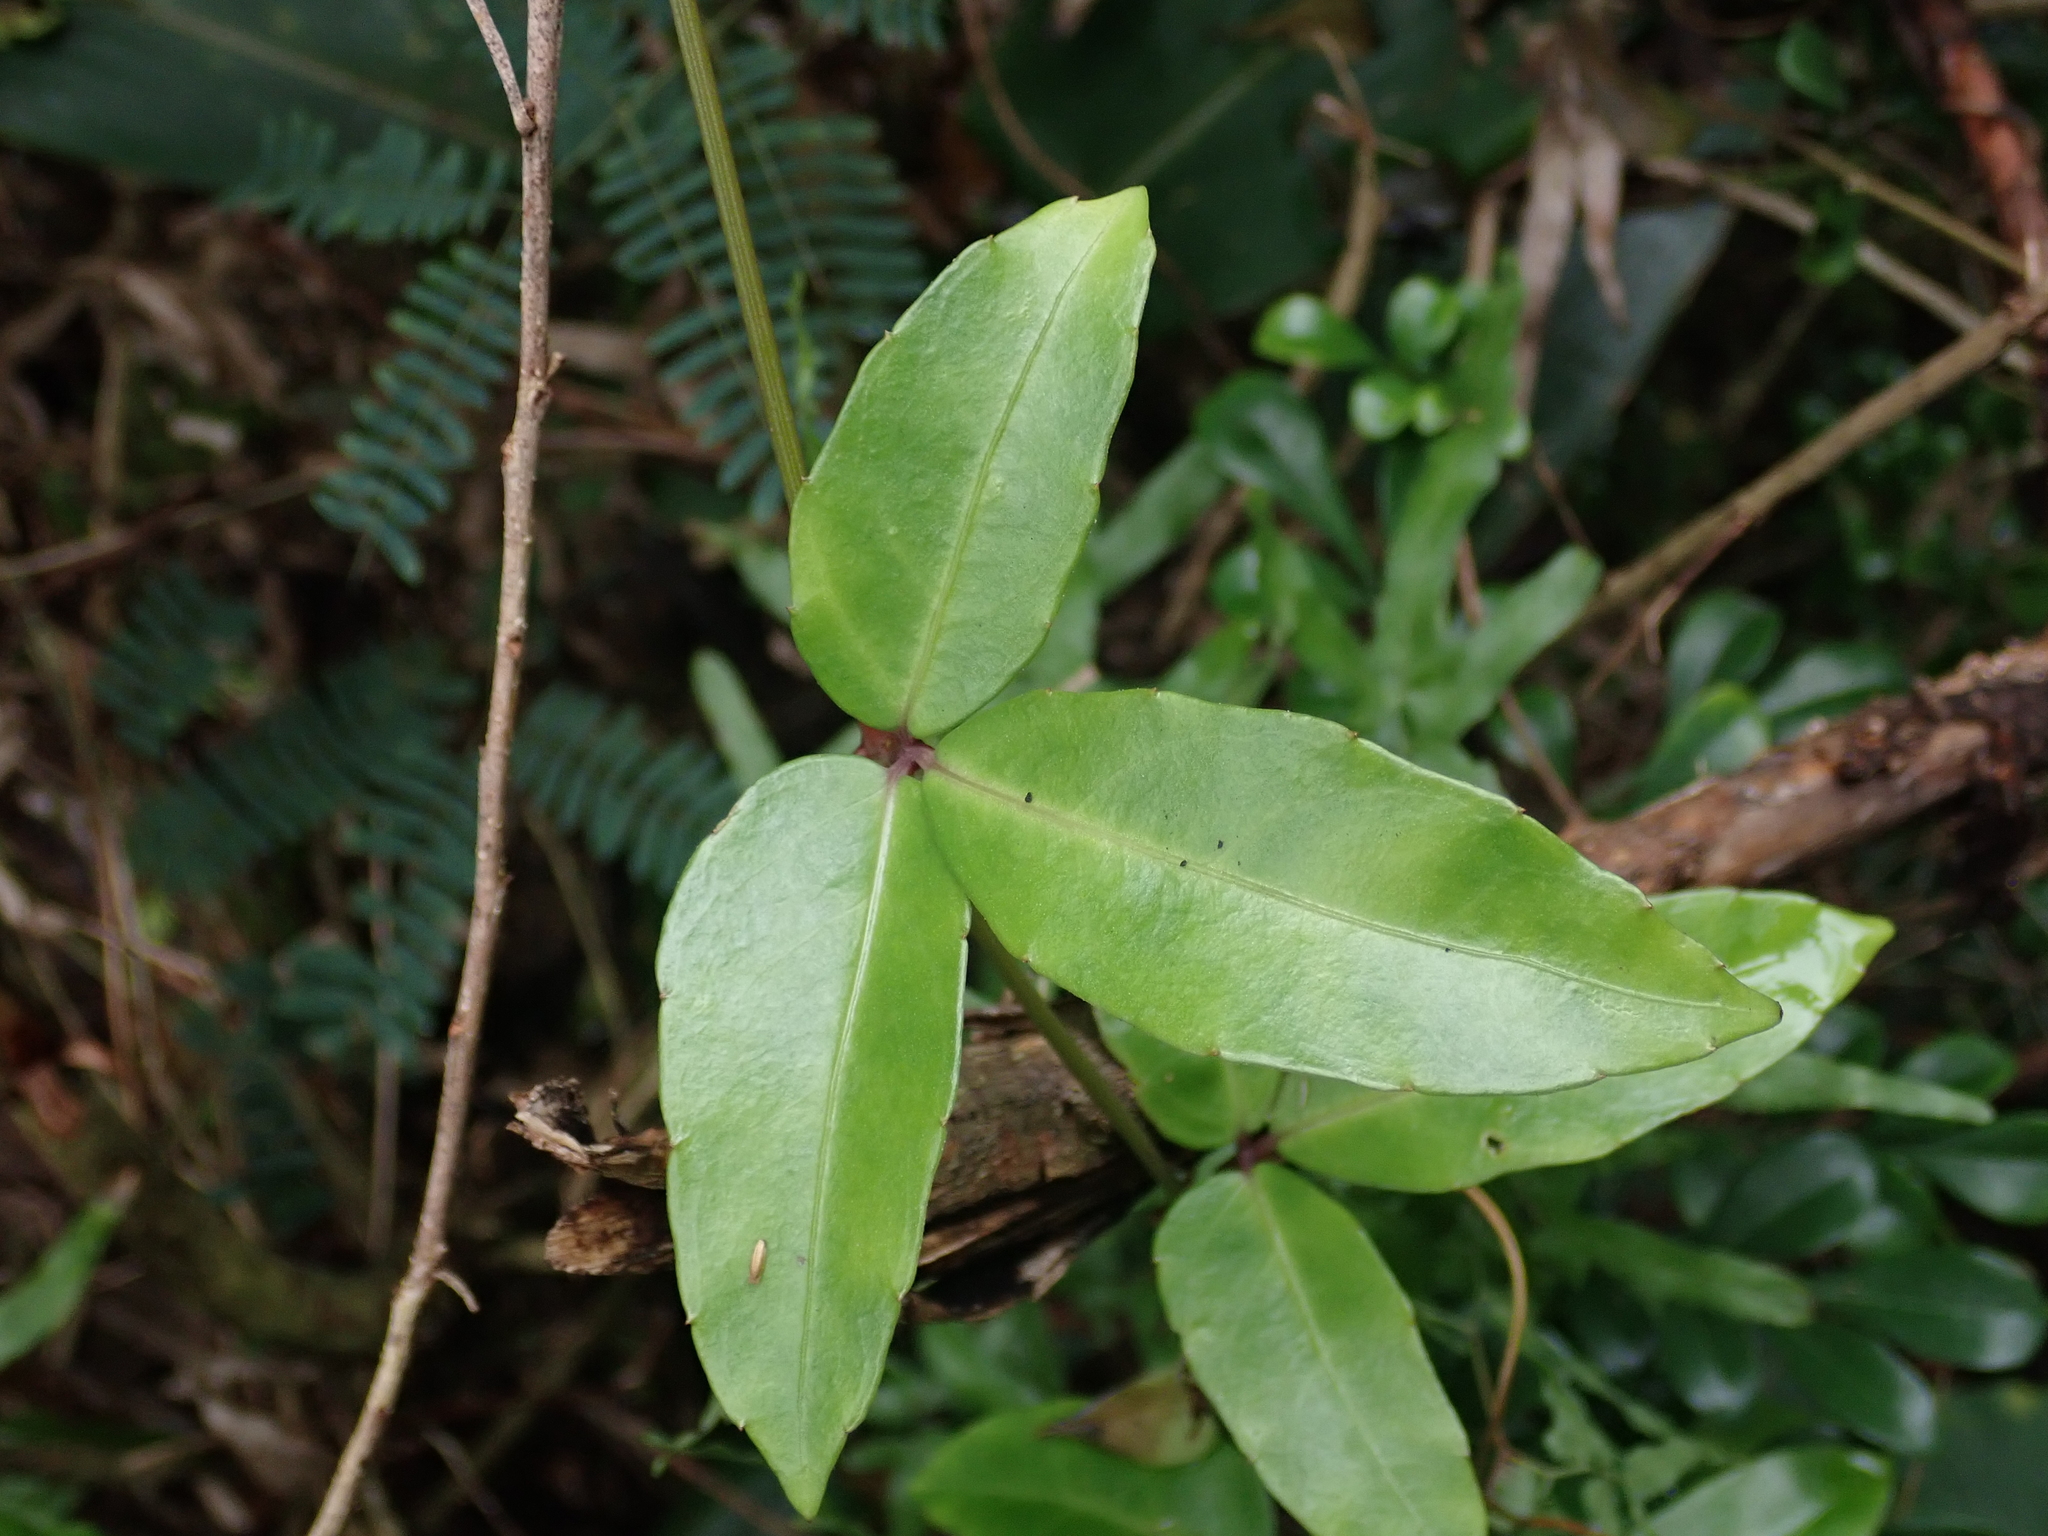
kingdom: Plantae
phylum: Tracheophyta
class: Magnoliopsida
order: Vitales
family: Vitaceae
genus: Tetrastigma
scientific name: Tetrastigma formosanum
